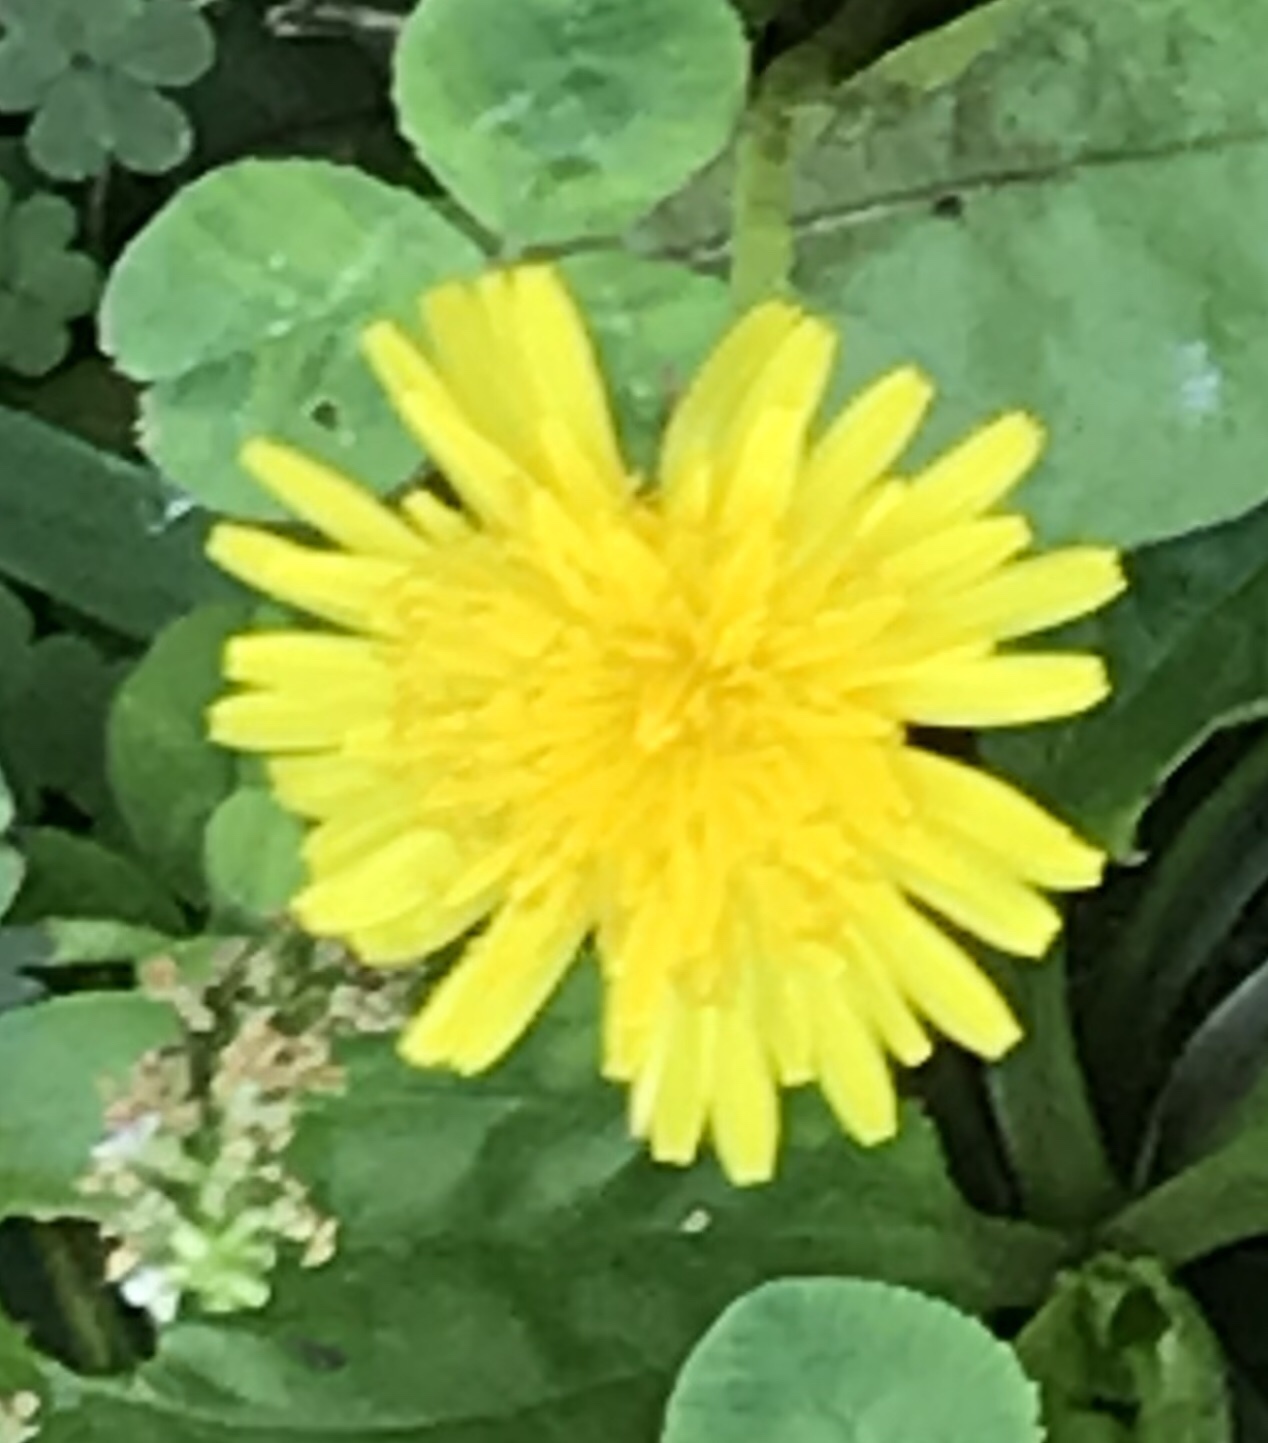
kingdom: Plantae
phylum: Tracheophyta
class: Magnoliopsida
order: Asterales
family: Asteraceae
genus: Taraxacum
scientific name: Taraxacum
